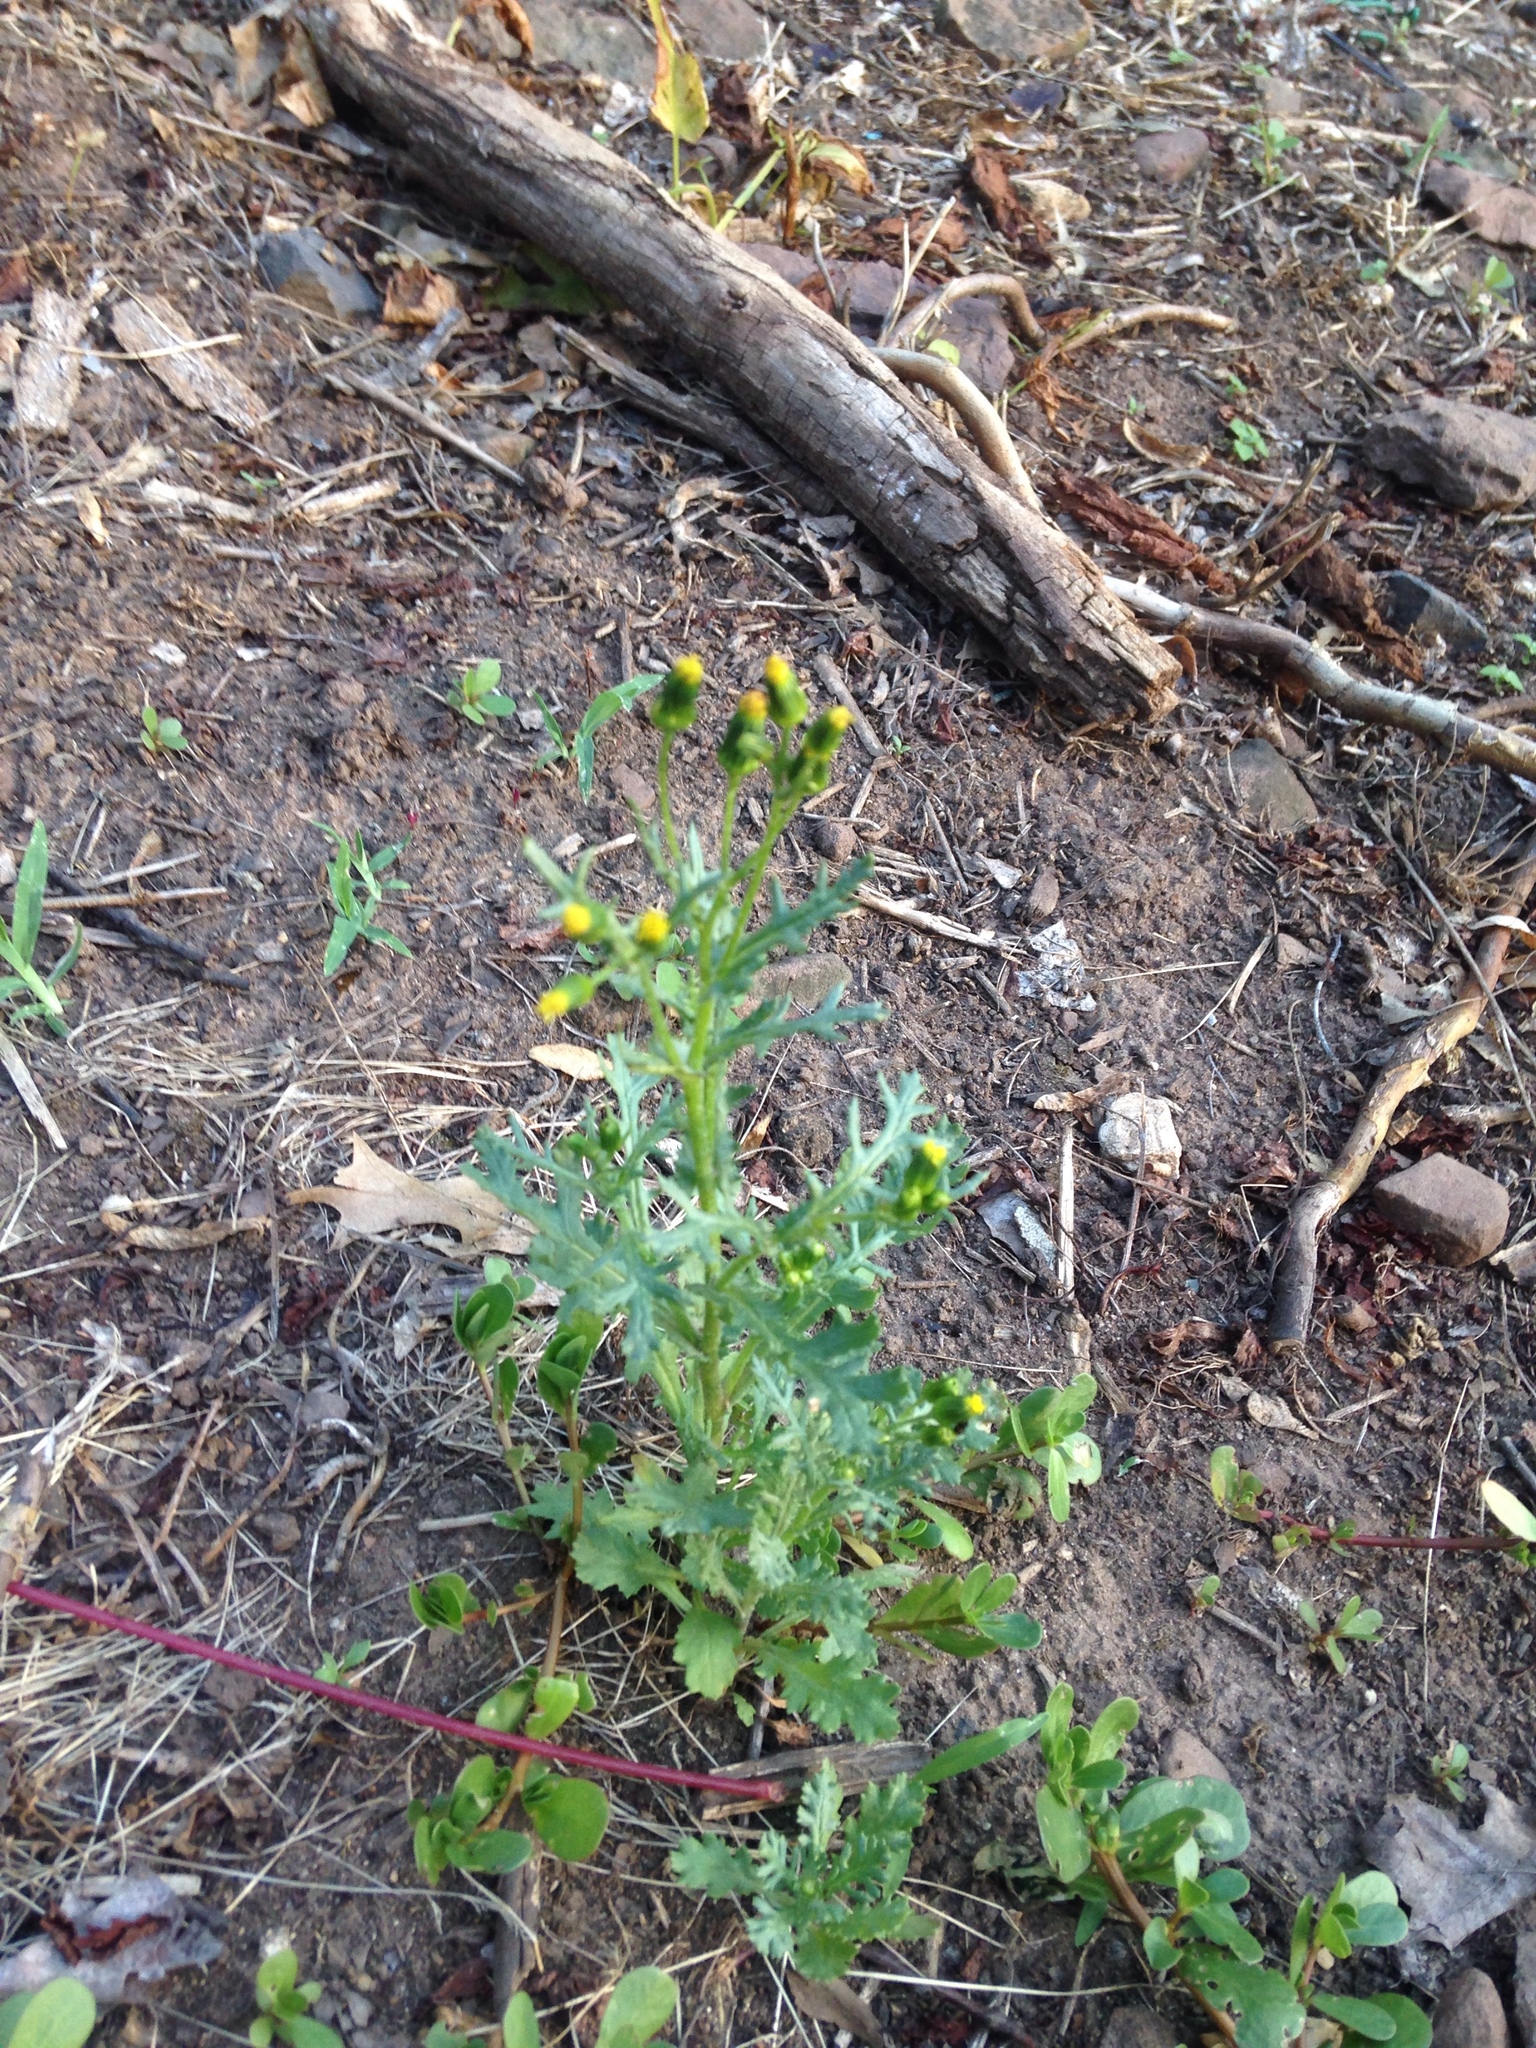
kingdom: Plantae
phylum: Tracheophyta
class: Magnoliopsida
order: Asterales
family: Asteraceae
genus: Senecio
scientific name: Senecio vulgaris
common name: Old-man-in-the-spring
